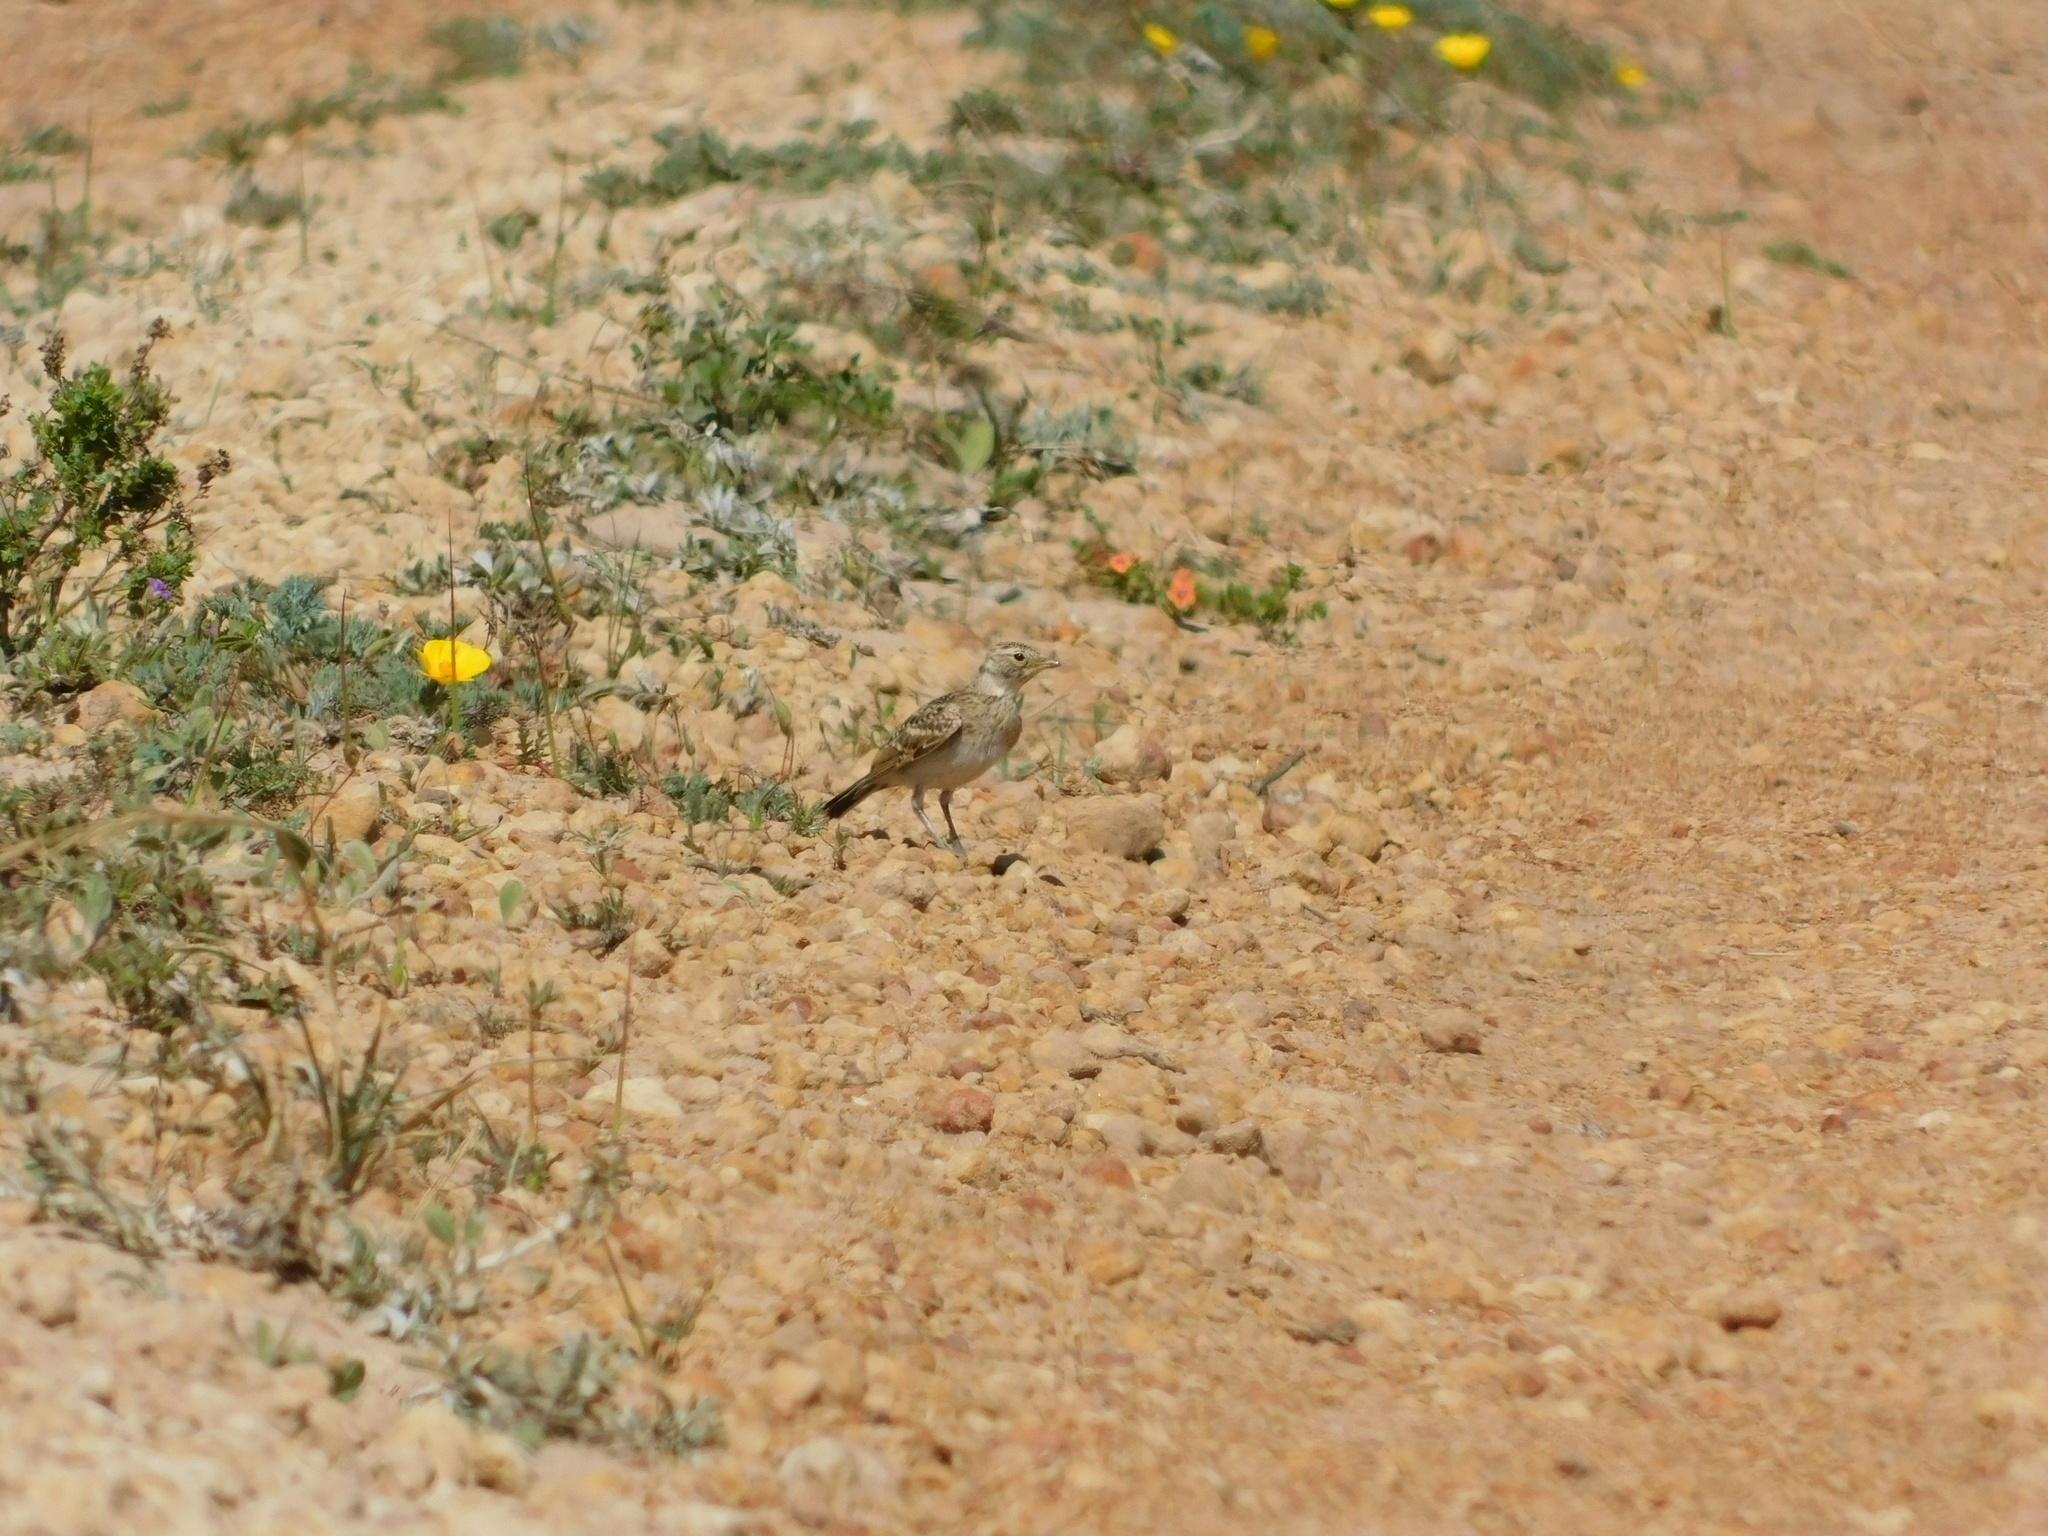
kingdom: Animalia
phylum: Chordata
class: Aves
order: Passeriformes
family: Alaudidae
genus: Eremophila
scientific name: Eremophila alpestris
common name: Horned lark
